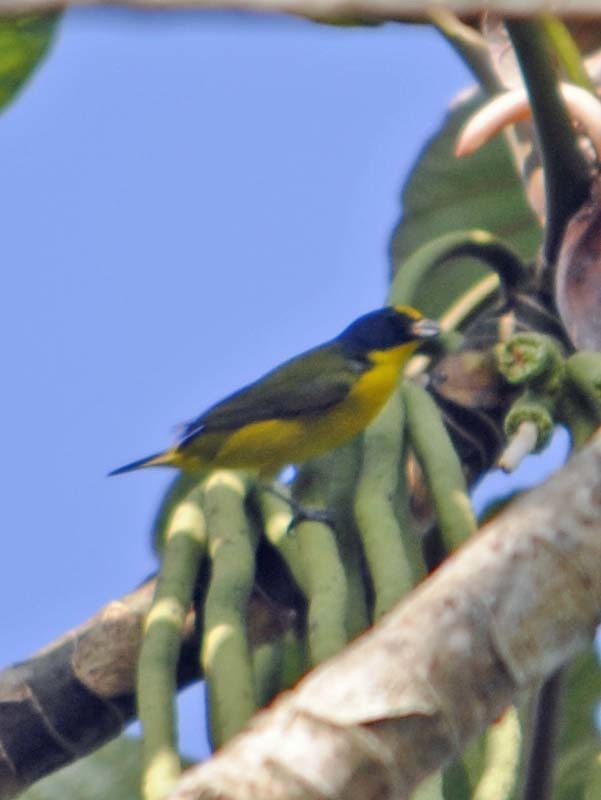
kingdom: Animalia
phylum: Chordata
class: Aves
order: Passeriformes
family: Fringillidae
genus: Euphonia
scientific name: Euphonia hirundinacea
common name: Yellow-throated euphonia
